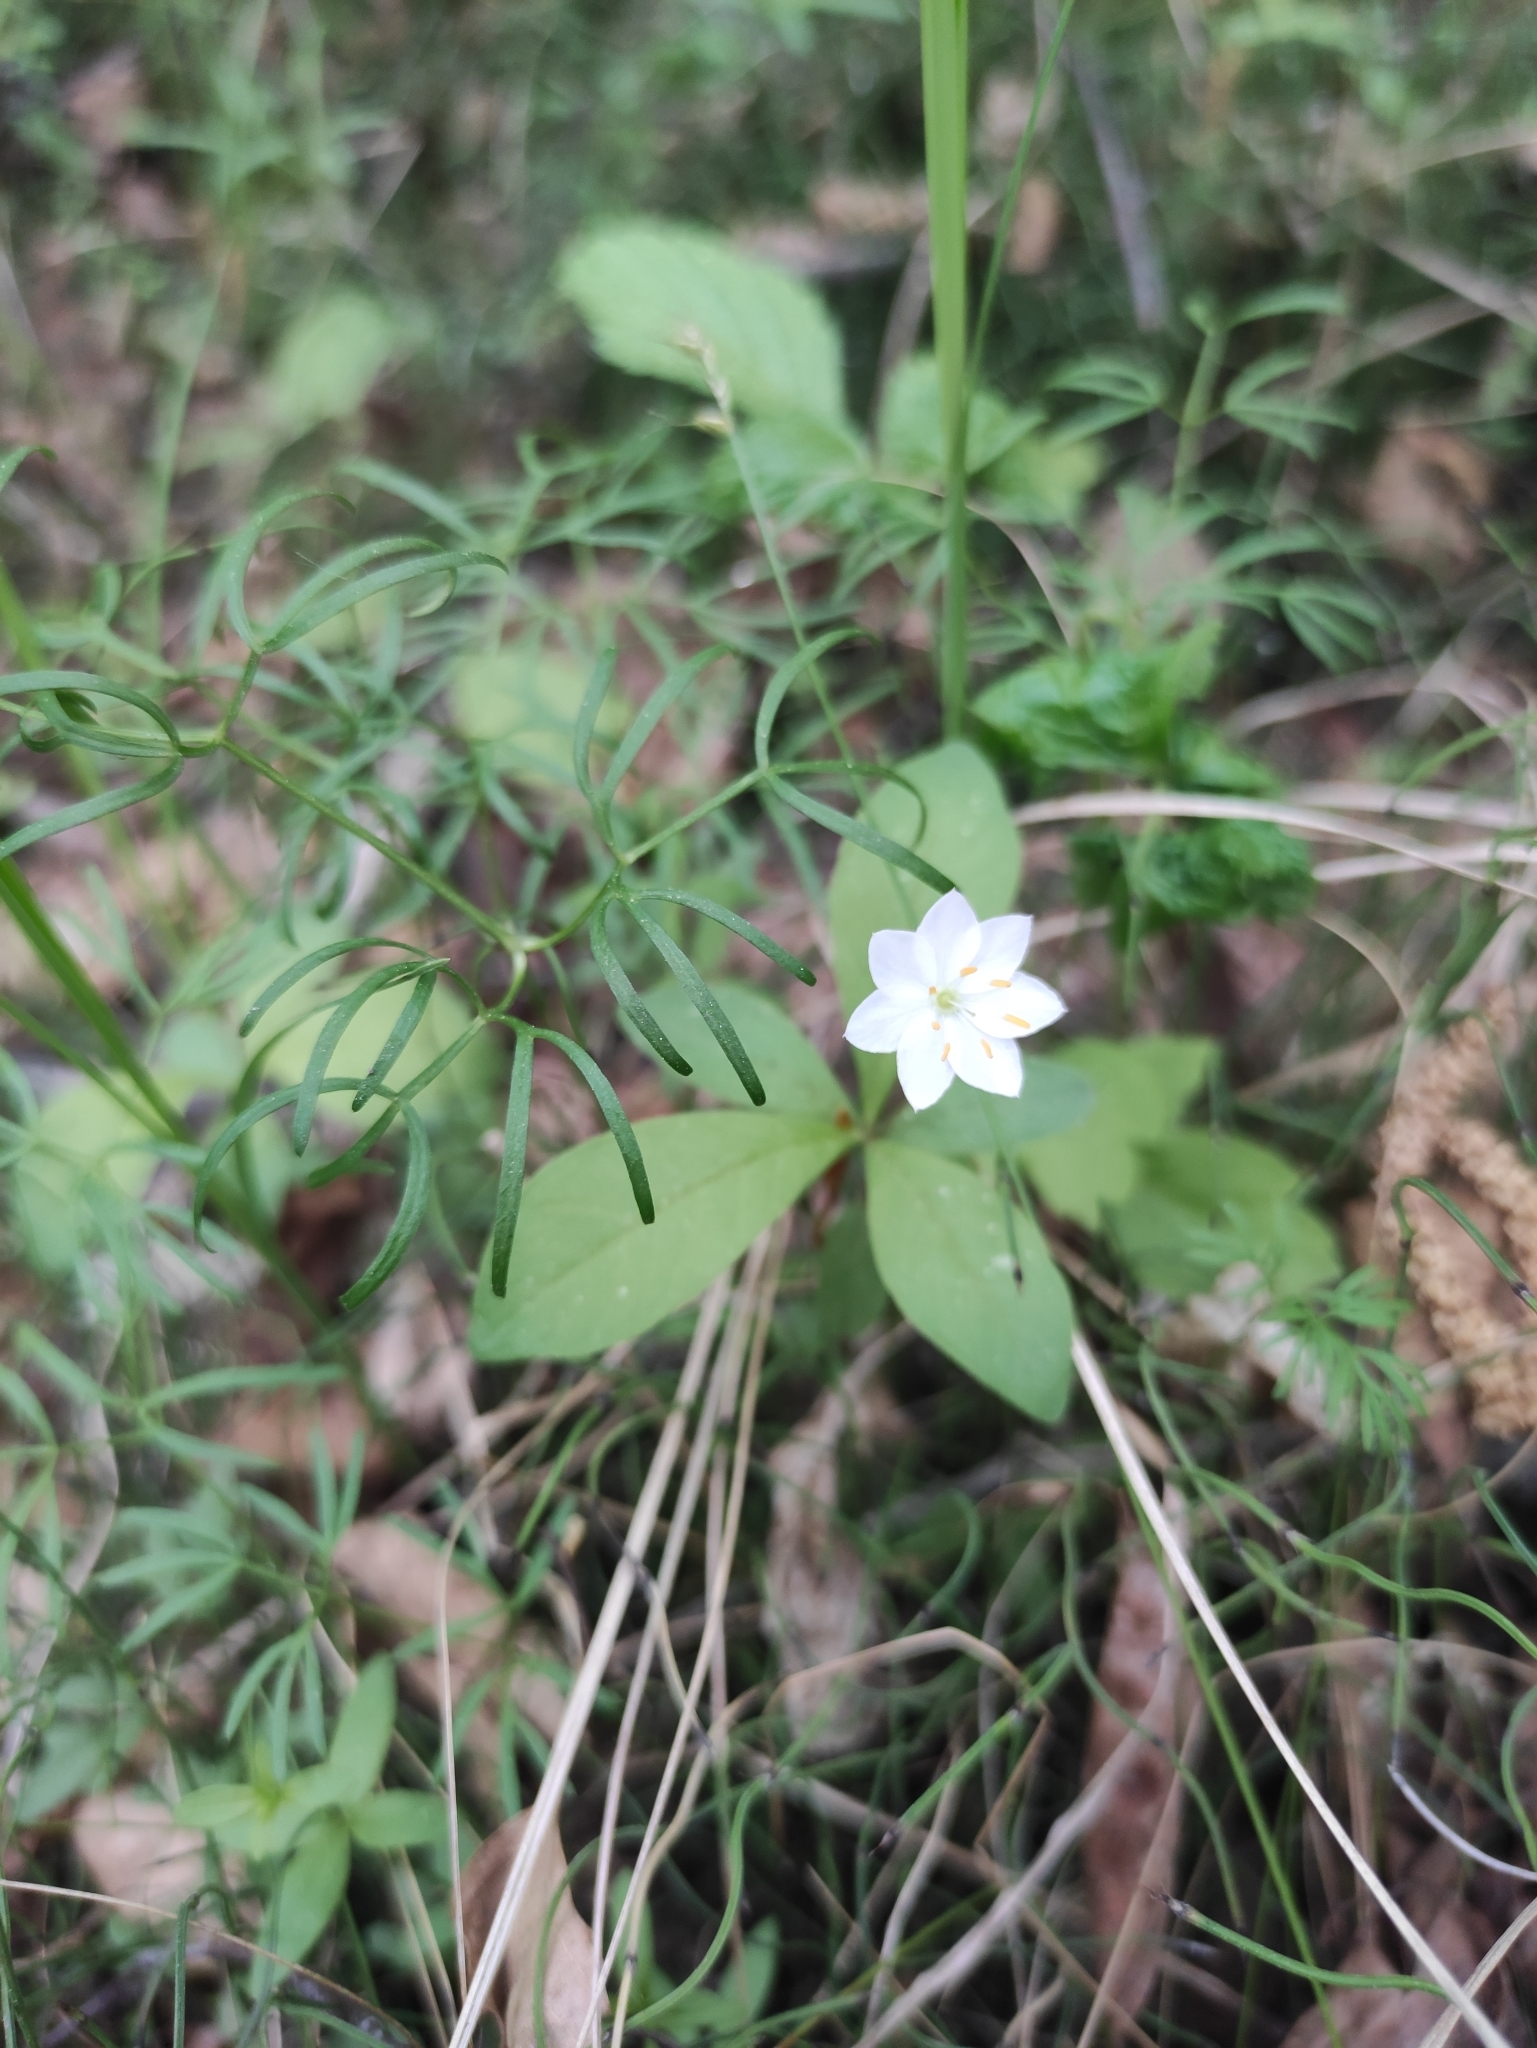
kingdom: Plantae
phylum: Tracheophyta
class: Magnoliopsida
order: Ericales
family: Primulaceae
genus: Lysimachia
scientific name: Lysimachia europaea
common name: Arctic starflower
